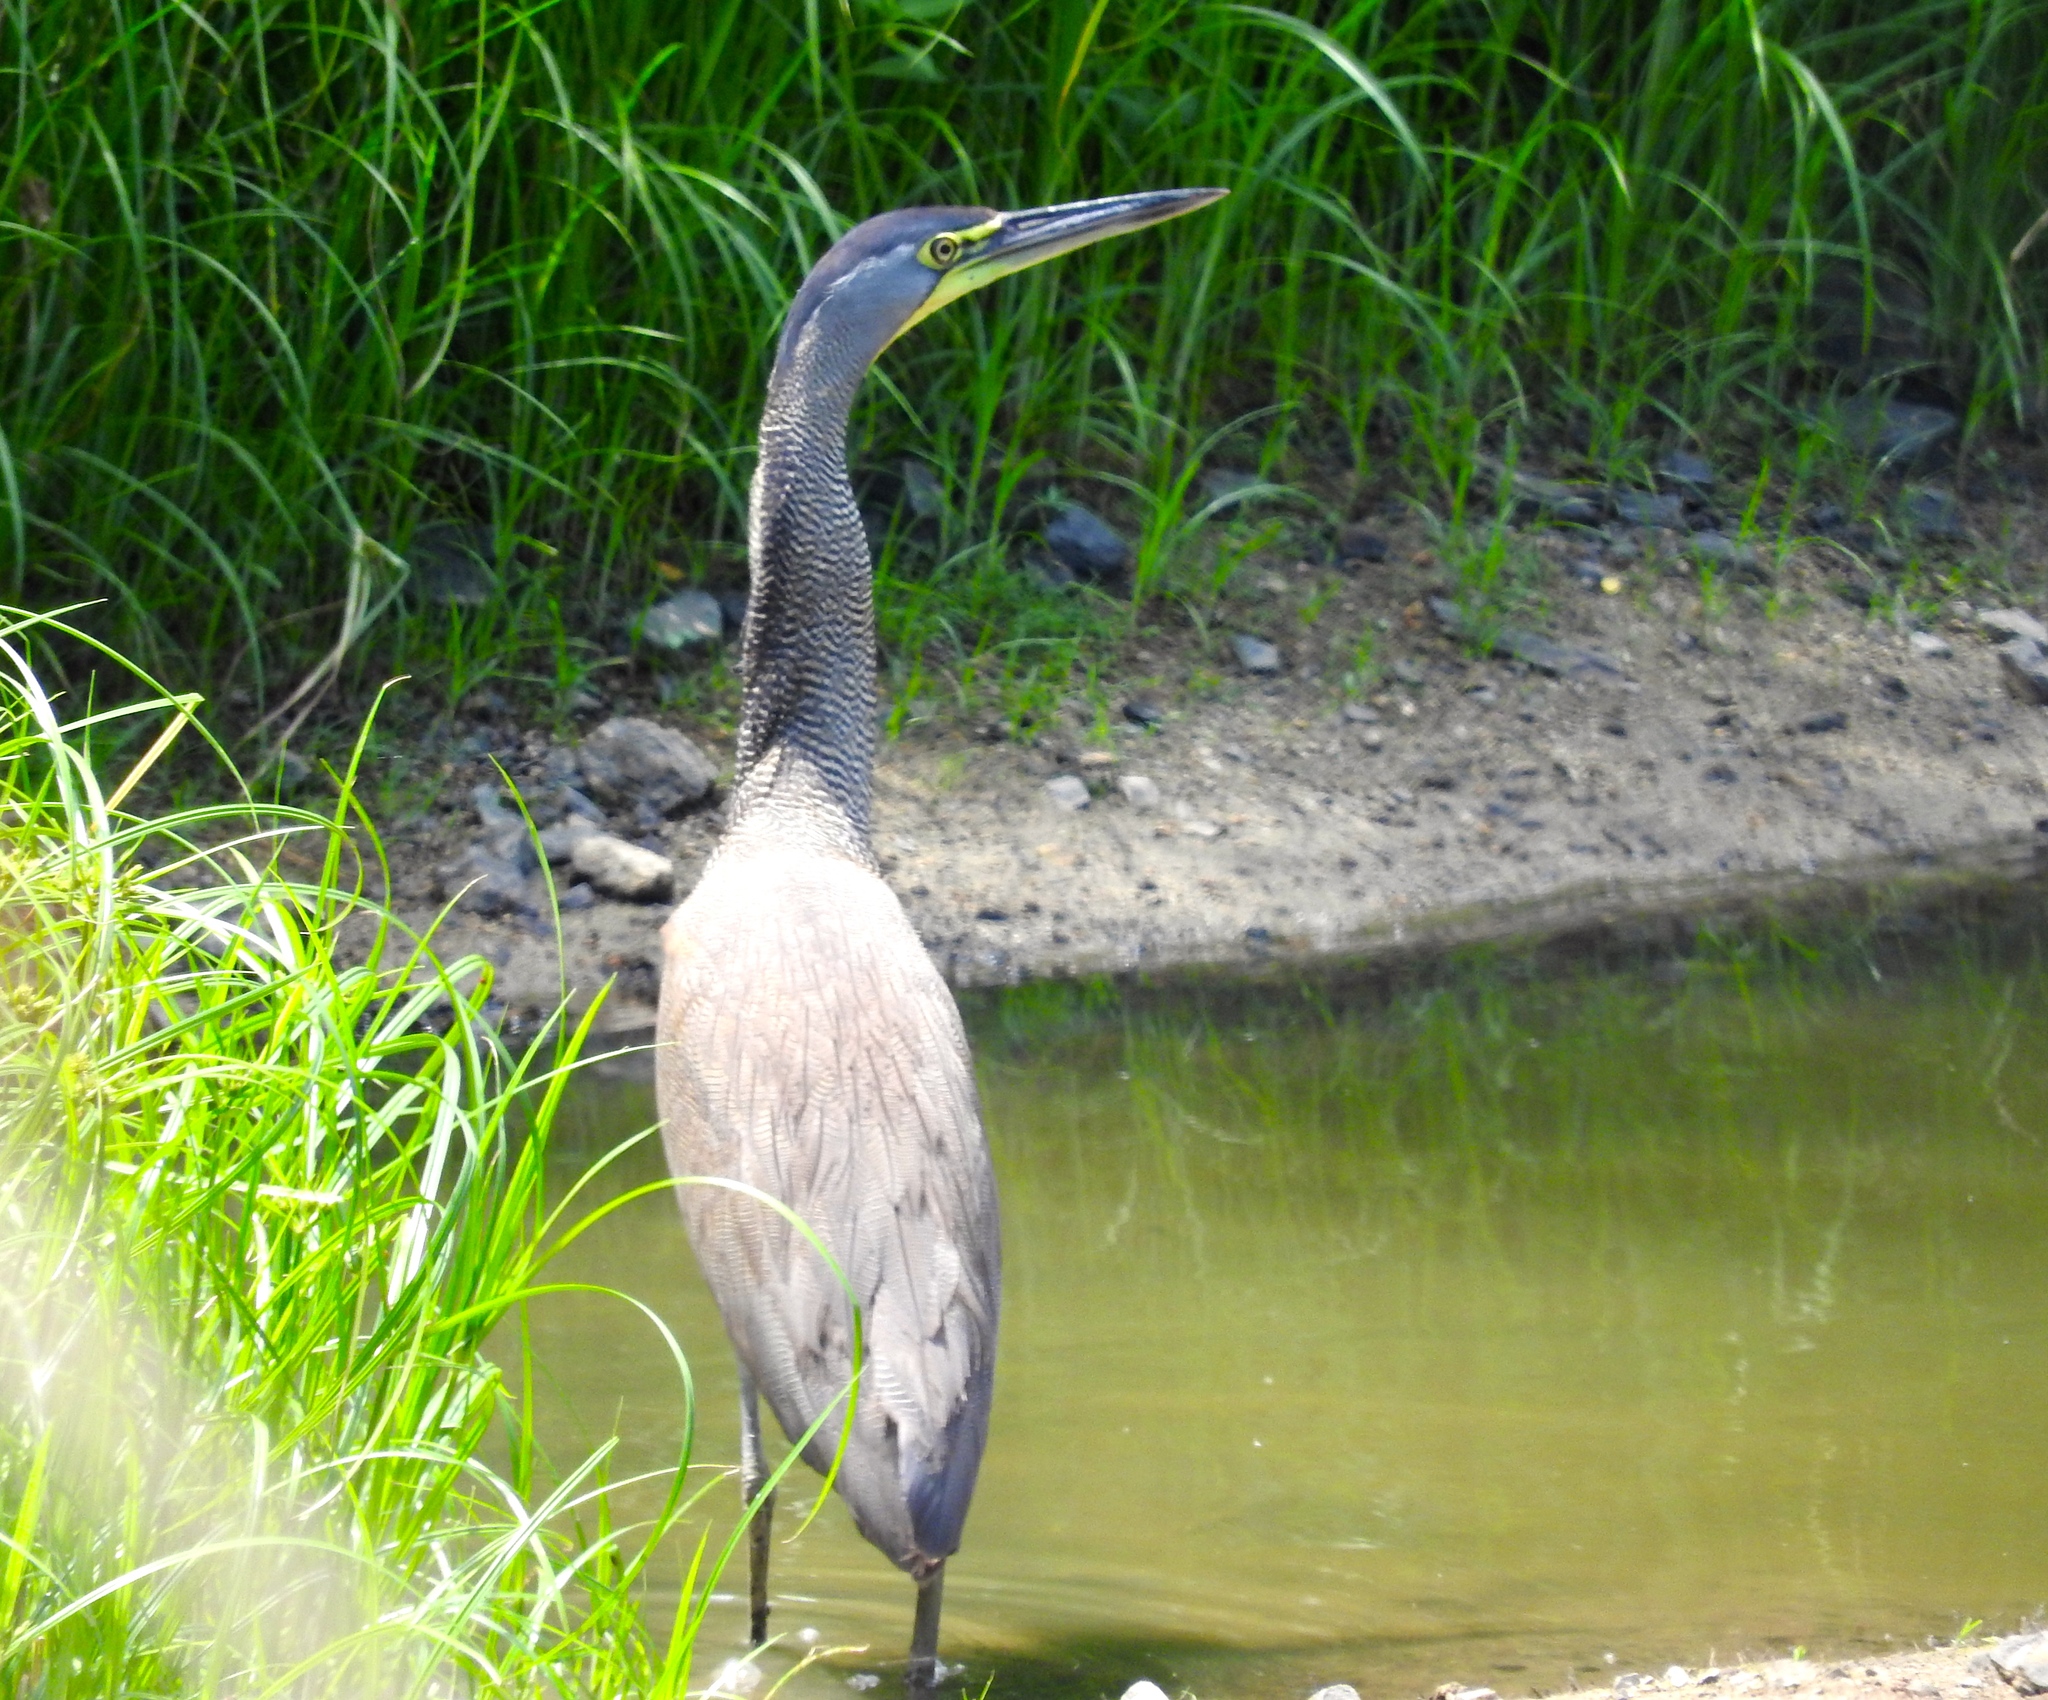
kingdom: Animalia
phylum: Chordata
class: Aves
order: Pelecaniformes
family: Ardeidae
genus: Tigrisoma
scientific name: Tigrisoma mexicanum
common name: Bare-throated tiger-heron
